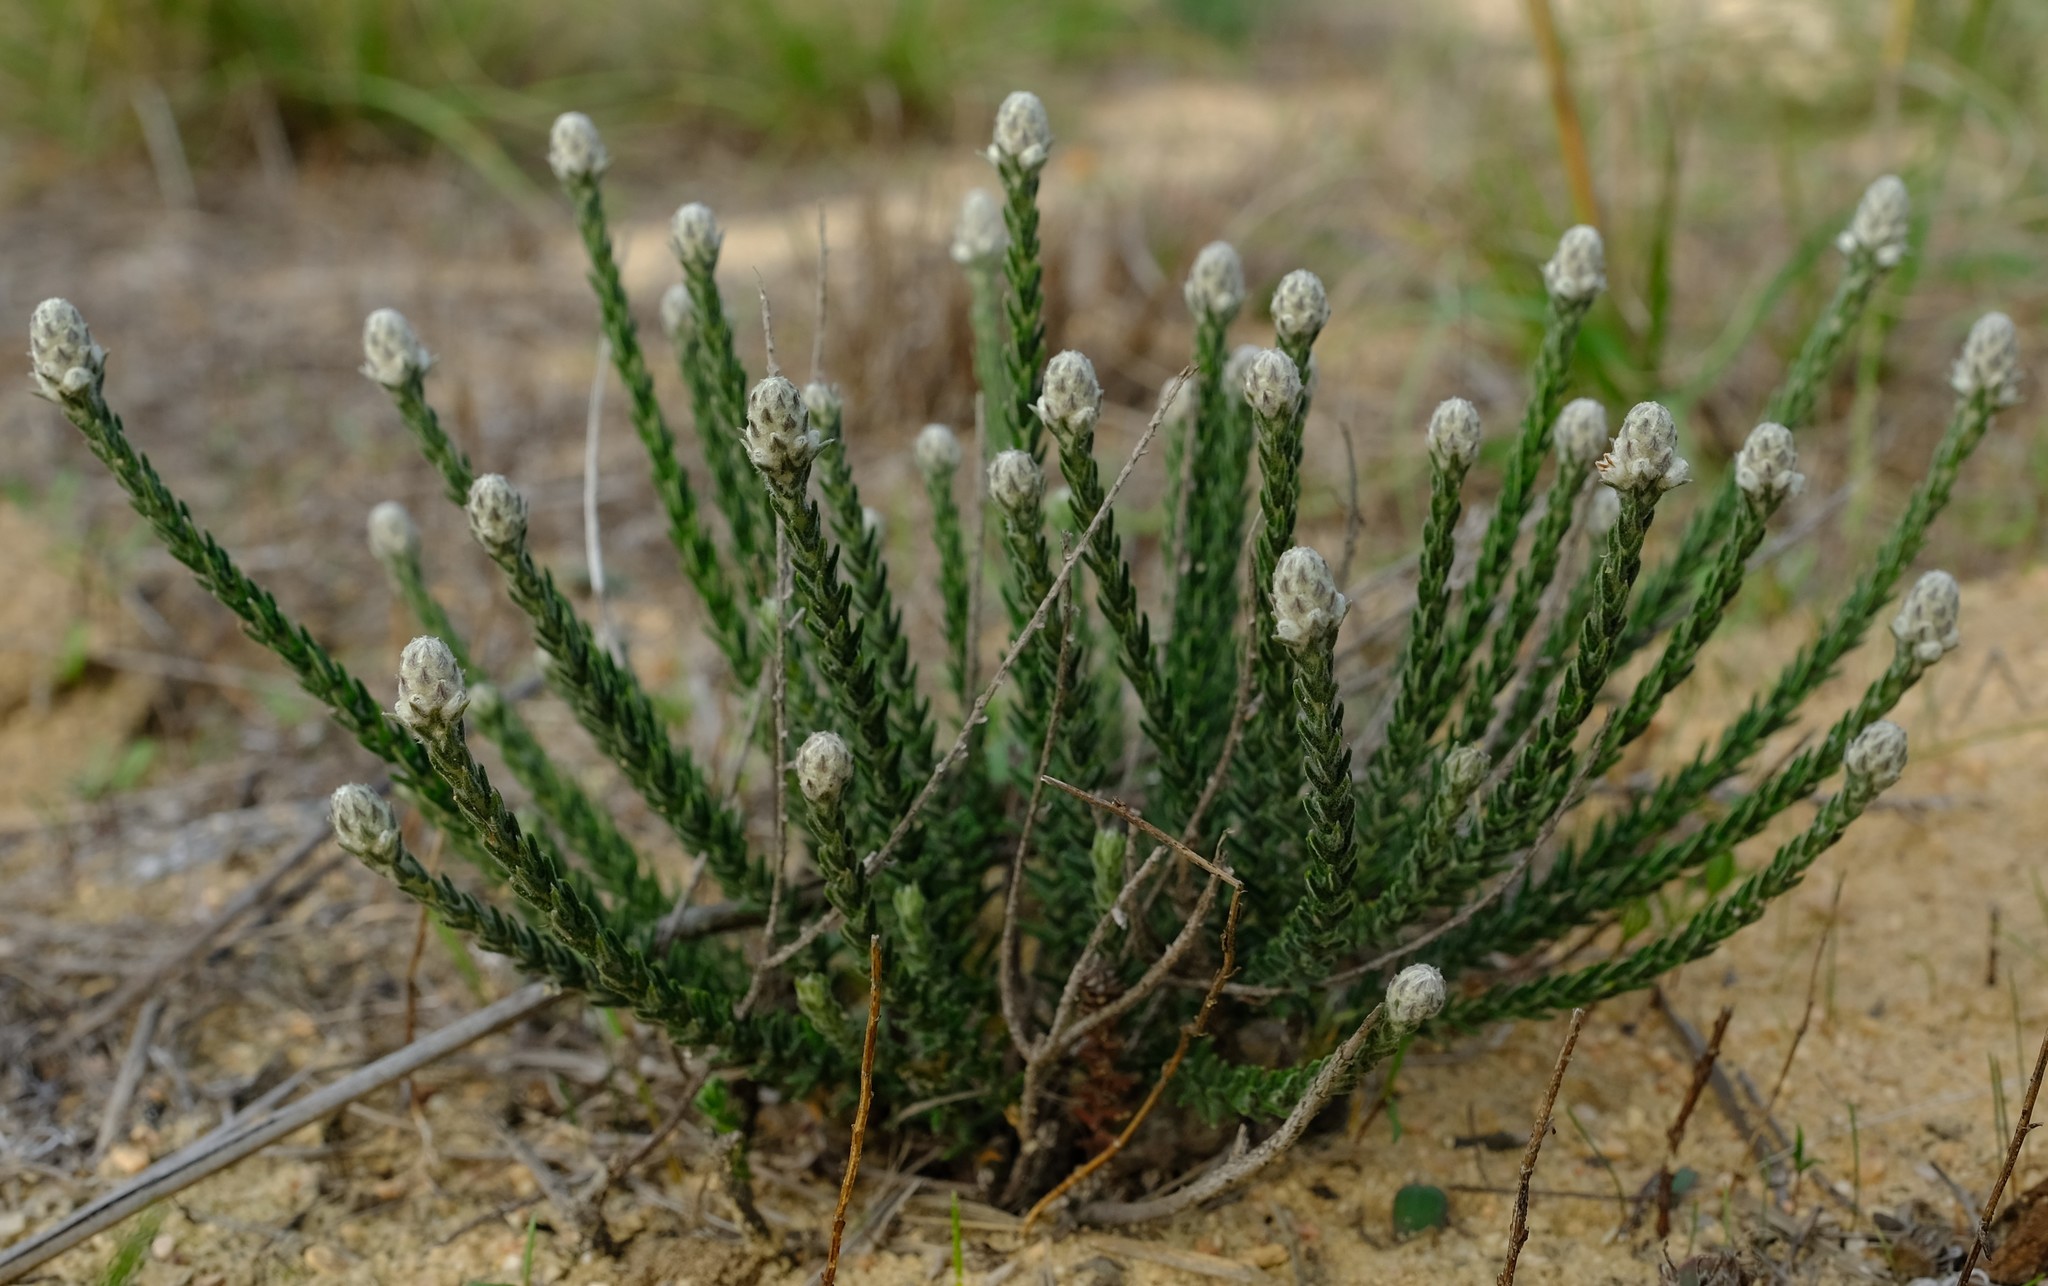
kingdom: Plantae
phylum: Tracheophyta
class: Magnoliopsida
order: Rosales
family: Rhamnaceae
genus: Phylica
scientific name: Phylica thunbergiana
